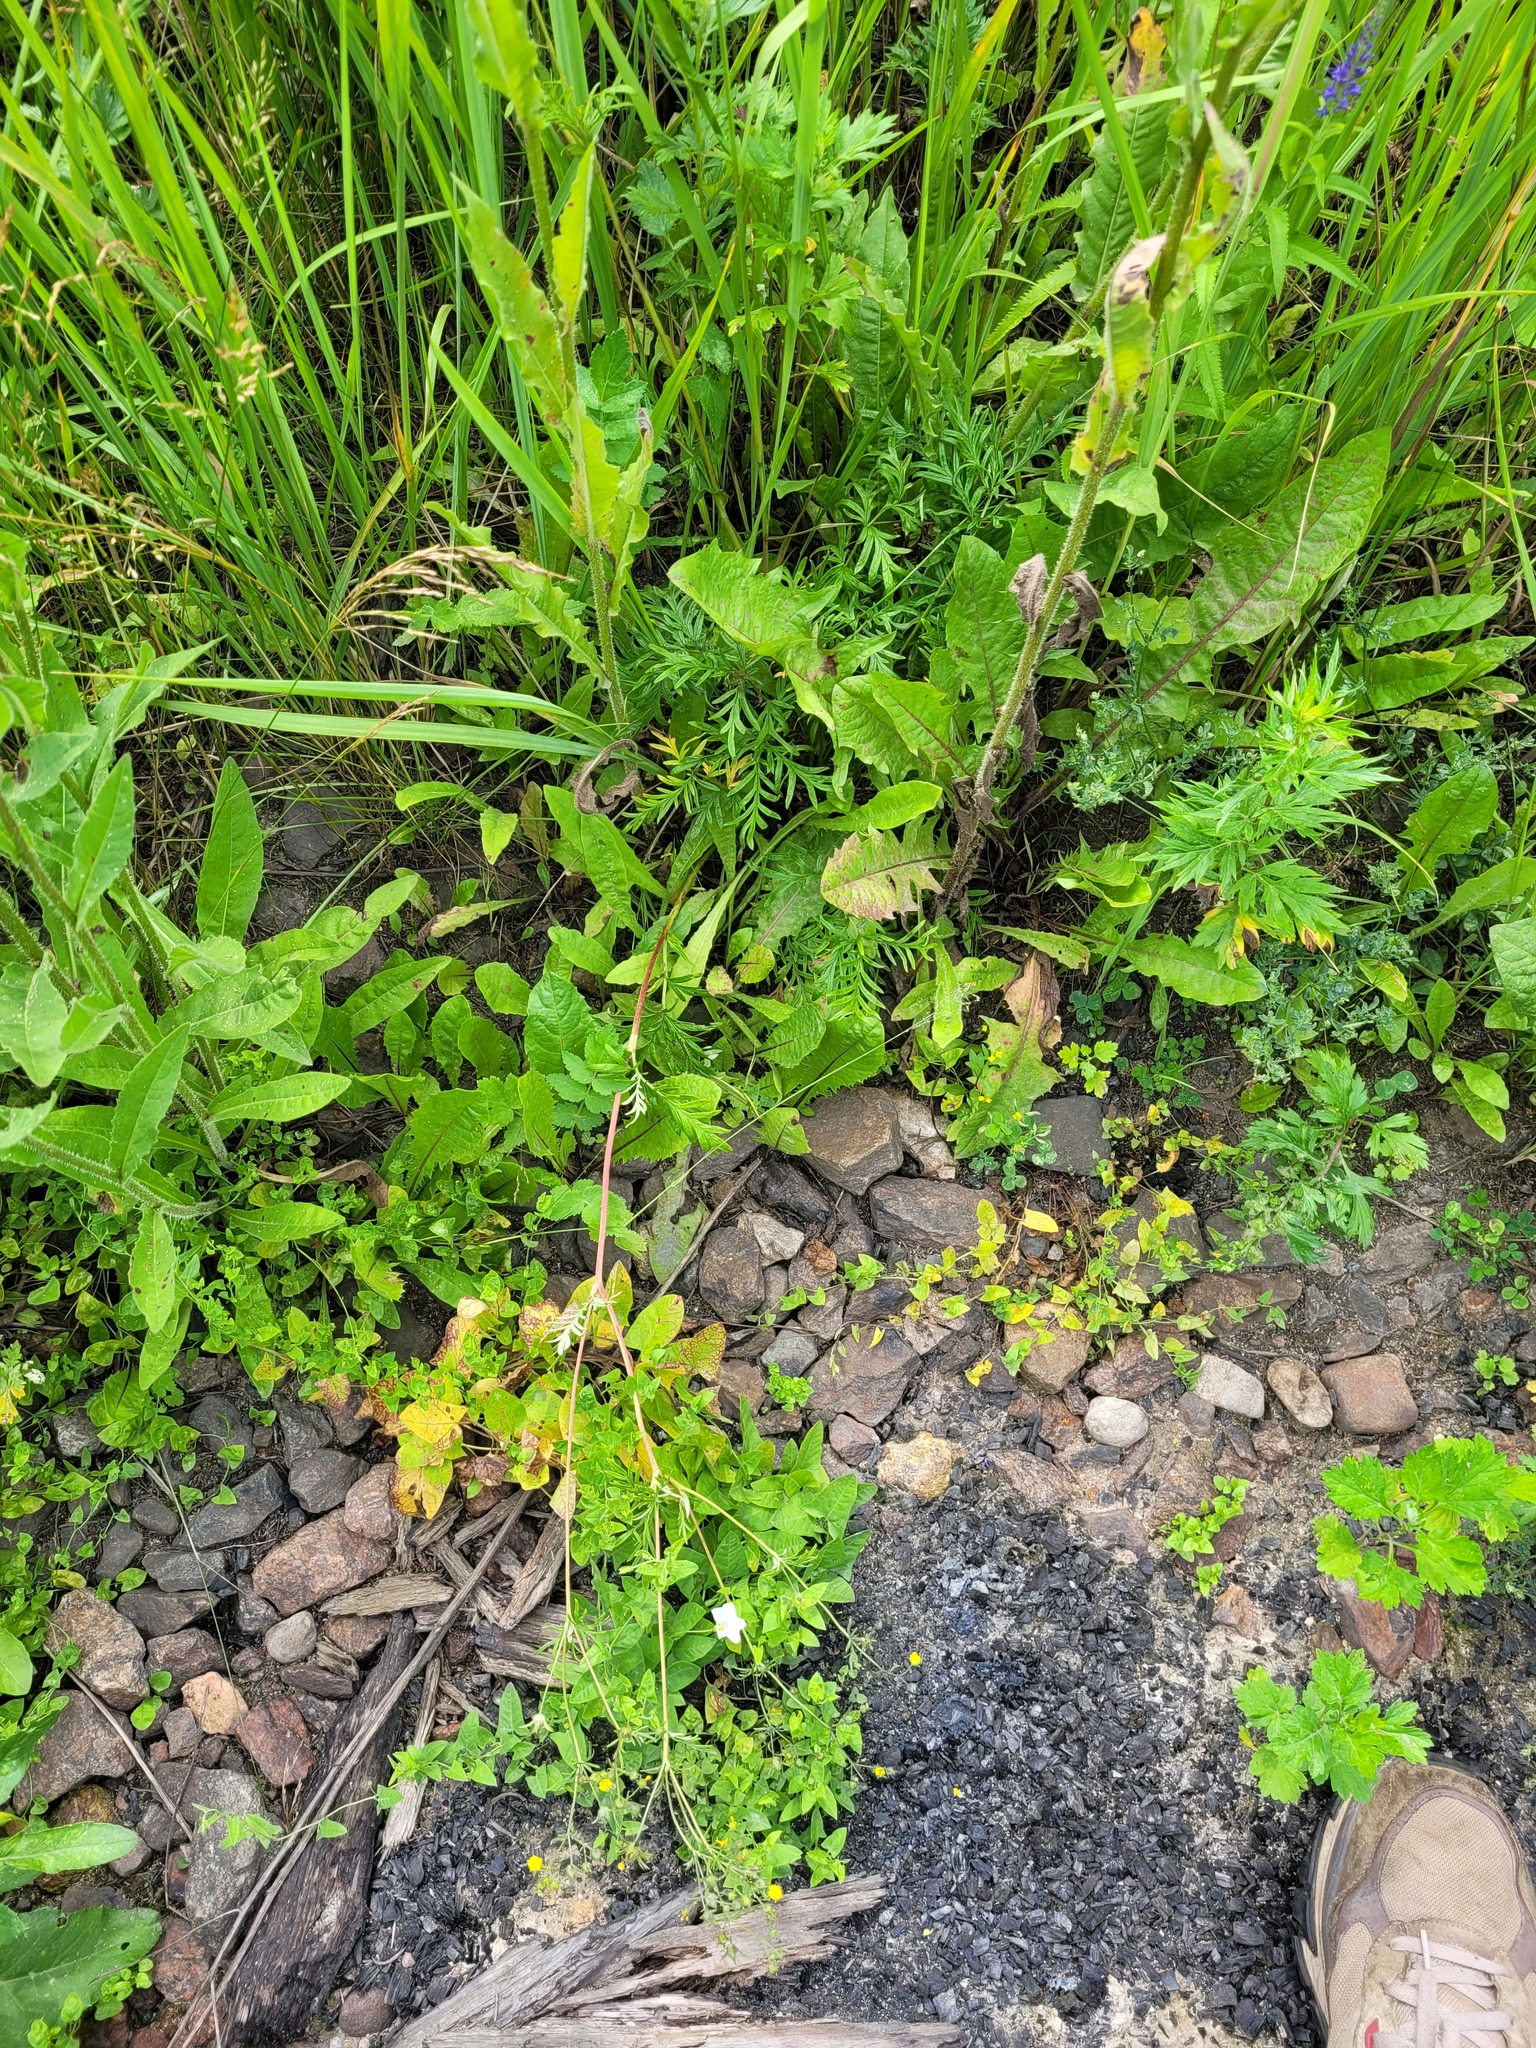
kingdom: Plantae
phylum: Tracheophyta
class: Magnoliopsida
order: Rosales
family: Rosaceae
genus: Potentilla
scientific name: Potentilla tergemina
